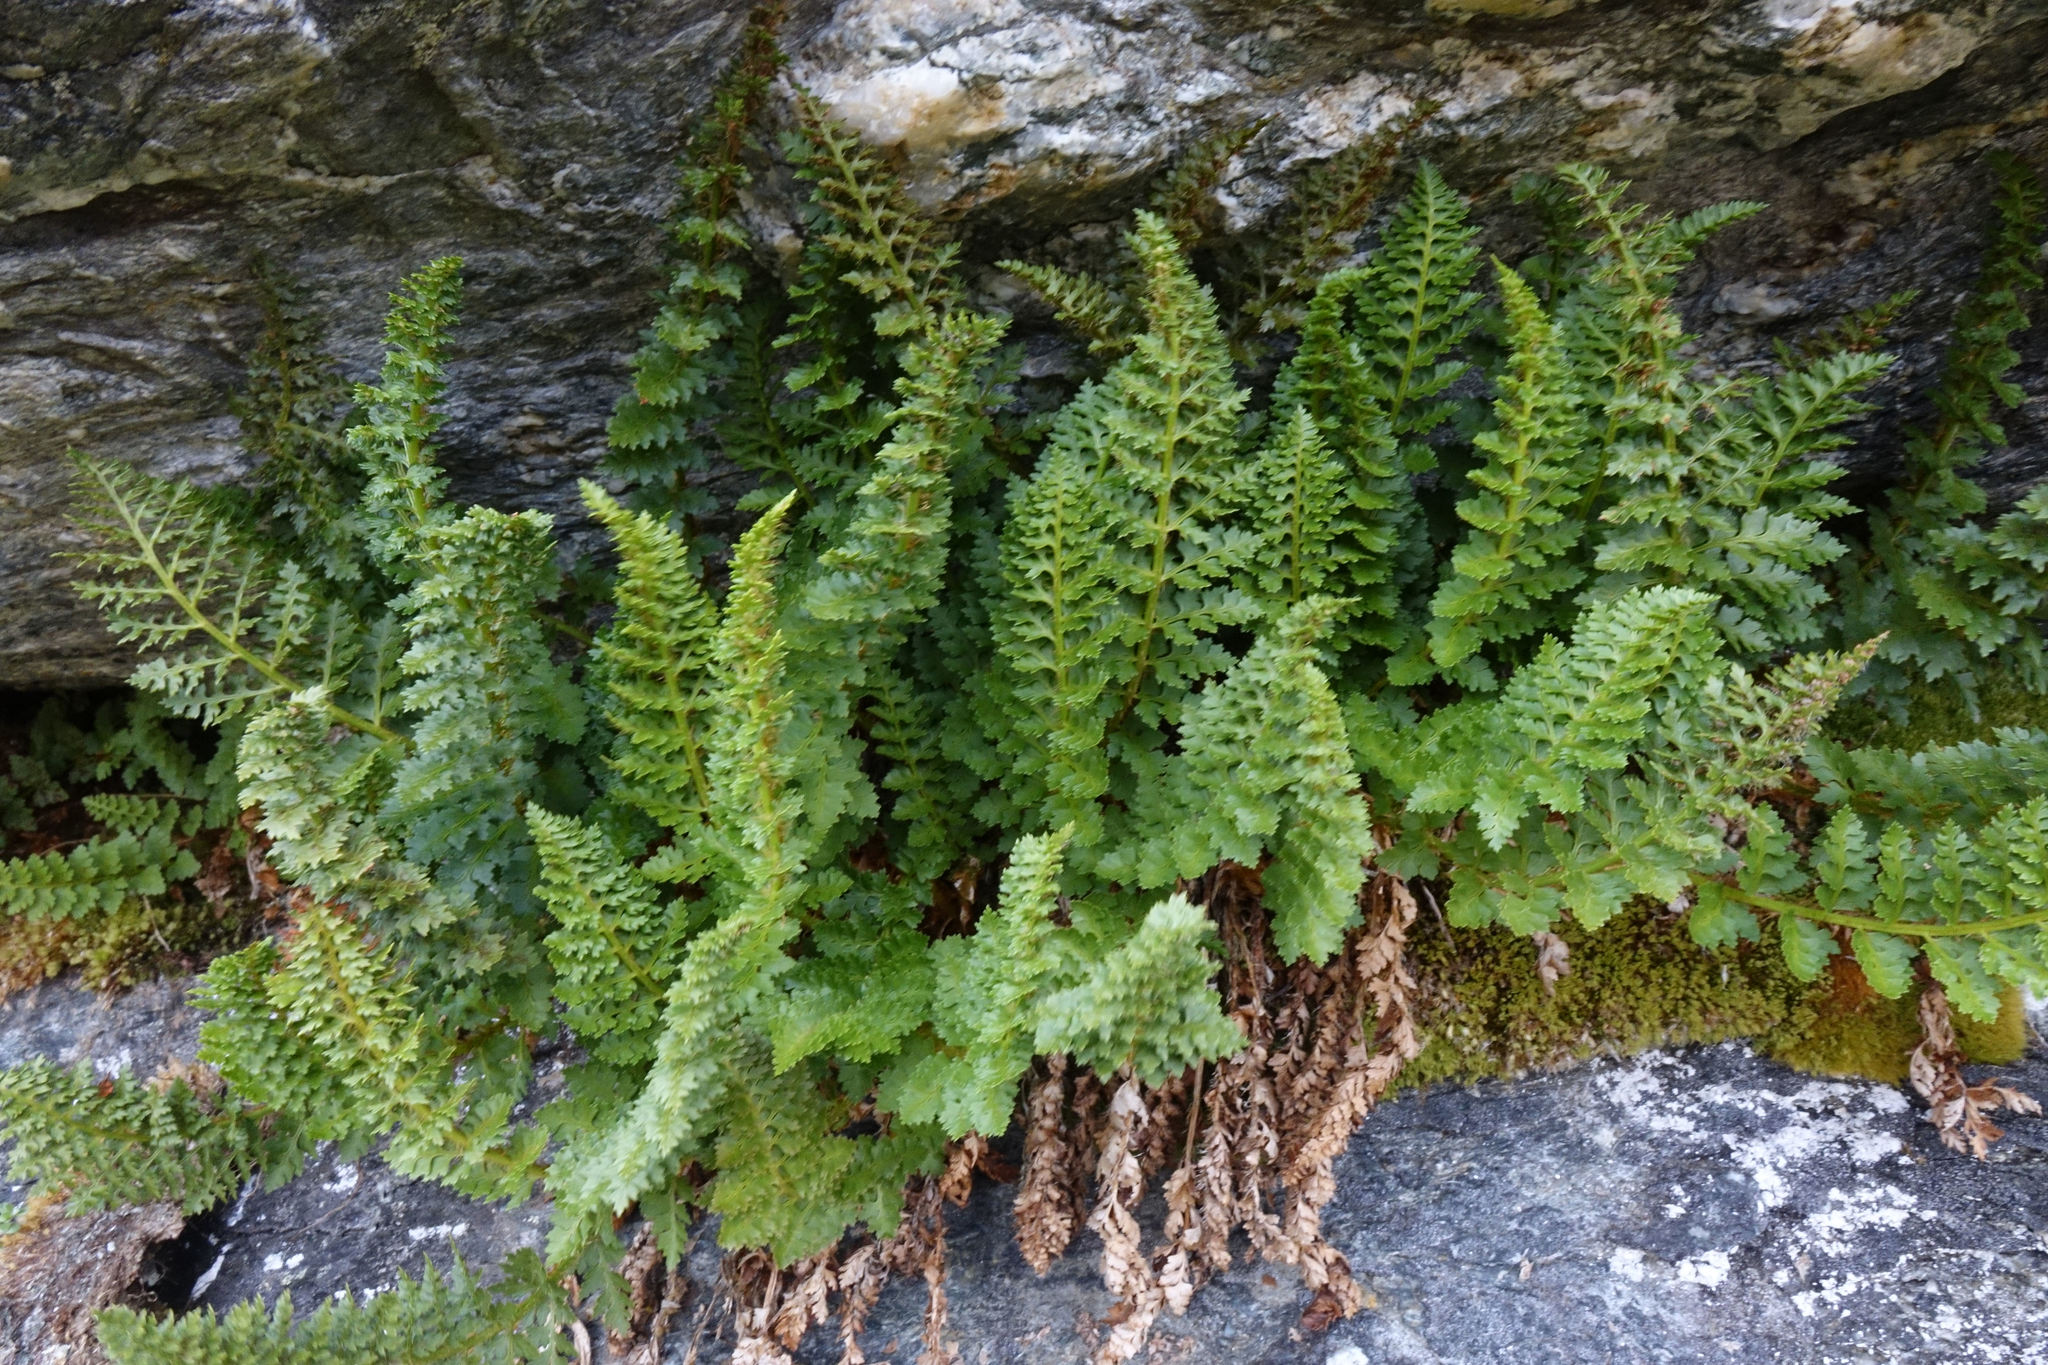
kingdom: Plantae
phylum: Tracheophyta
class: Polypodiopsida
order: Polypodiales
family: Dryopteridaceae
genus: Polystichum
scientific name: Polystichum cystostegia
